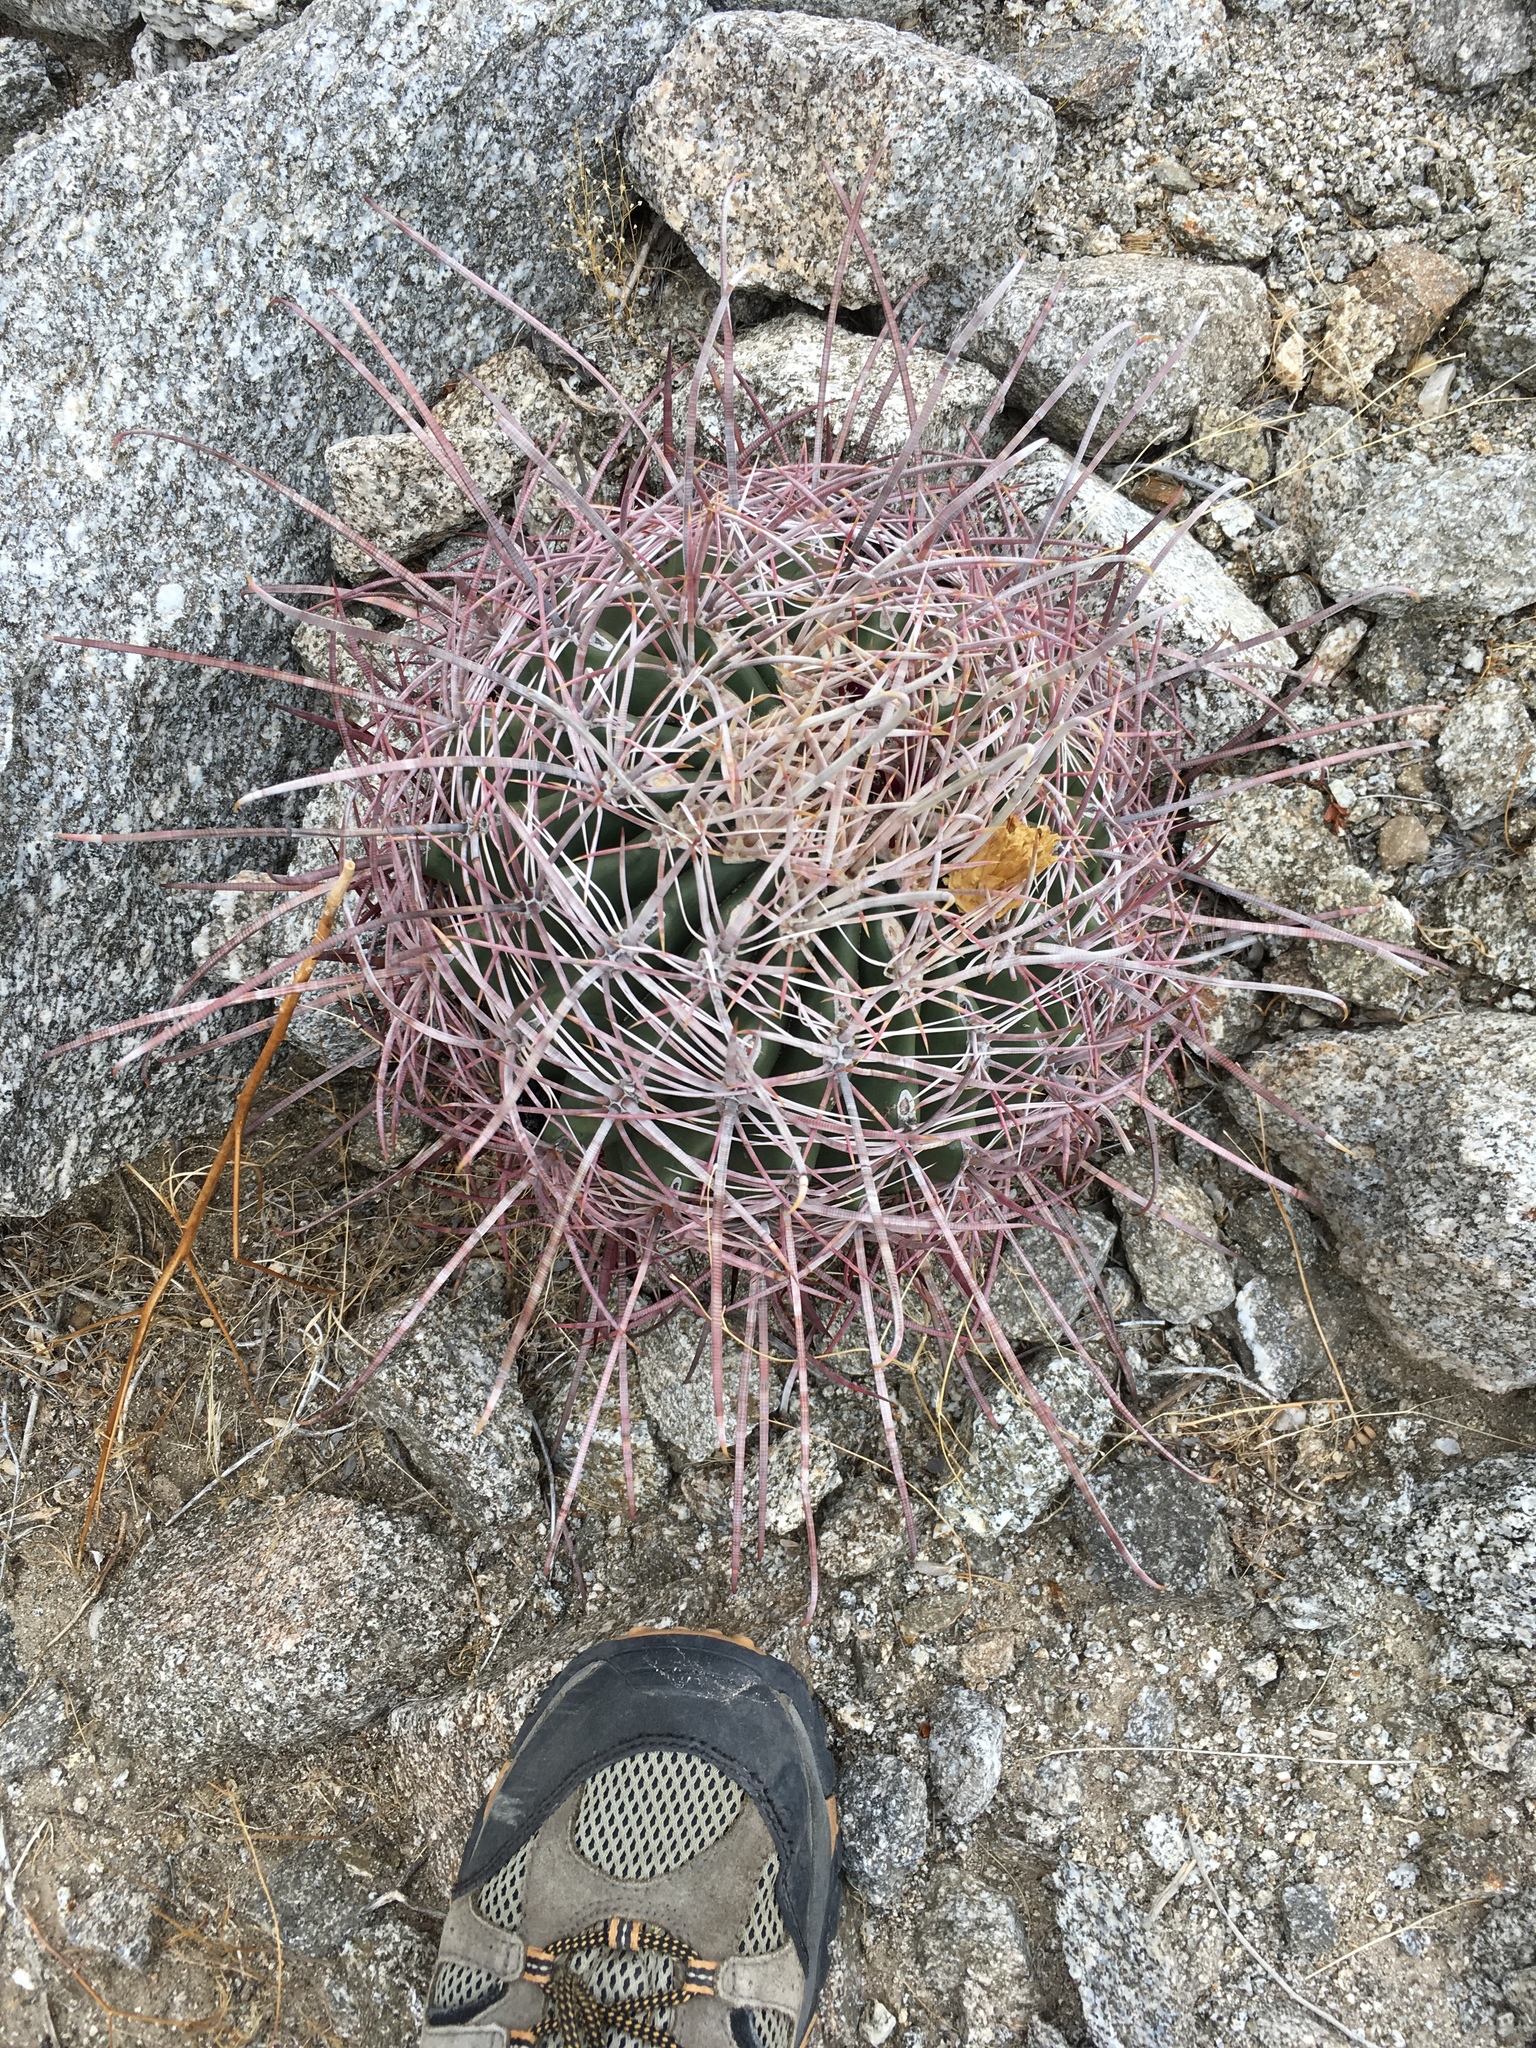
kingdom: Plantae
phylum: Tracheophyta
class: Magnoliopsida
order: Caryophyllales
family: Cactaceae
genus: Ferocactus
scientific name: Ferocactus cylindraceus
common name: California barrel cactus
